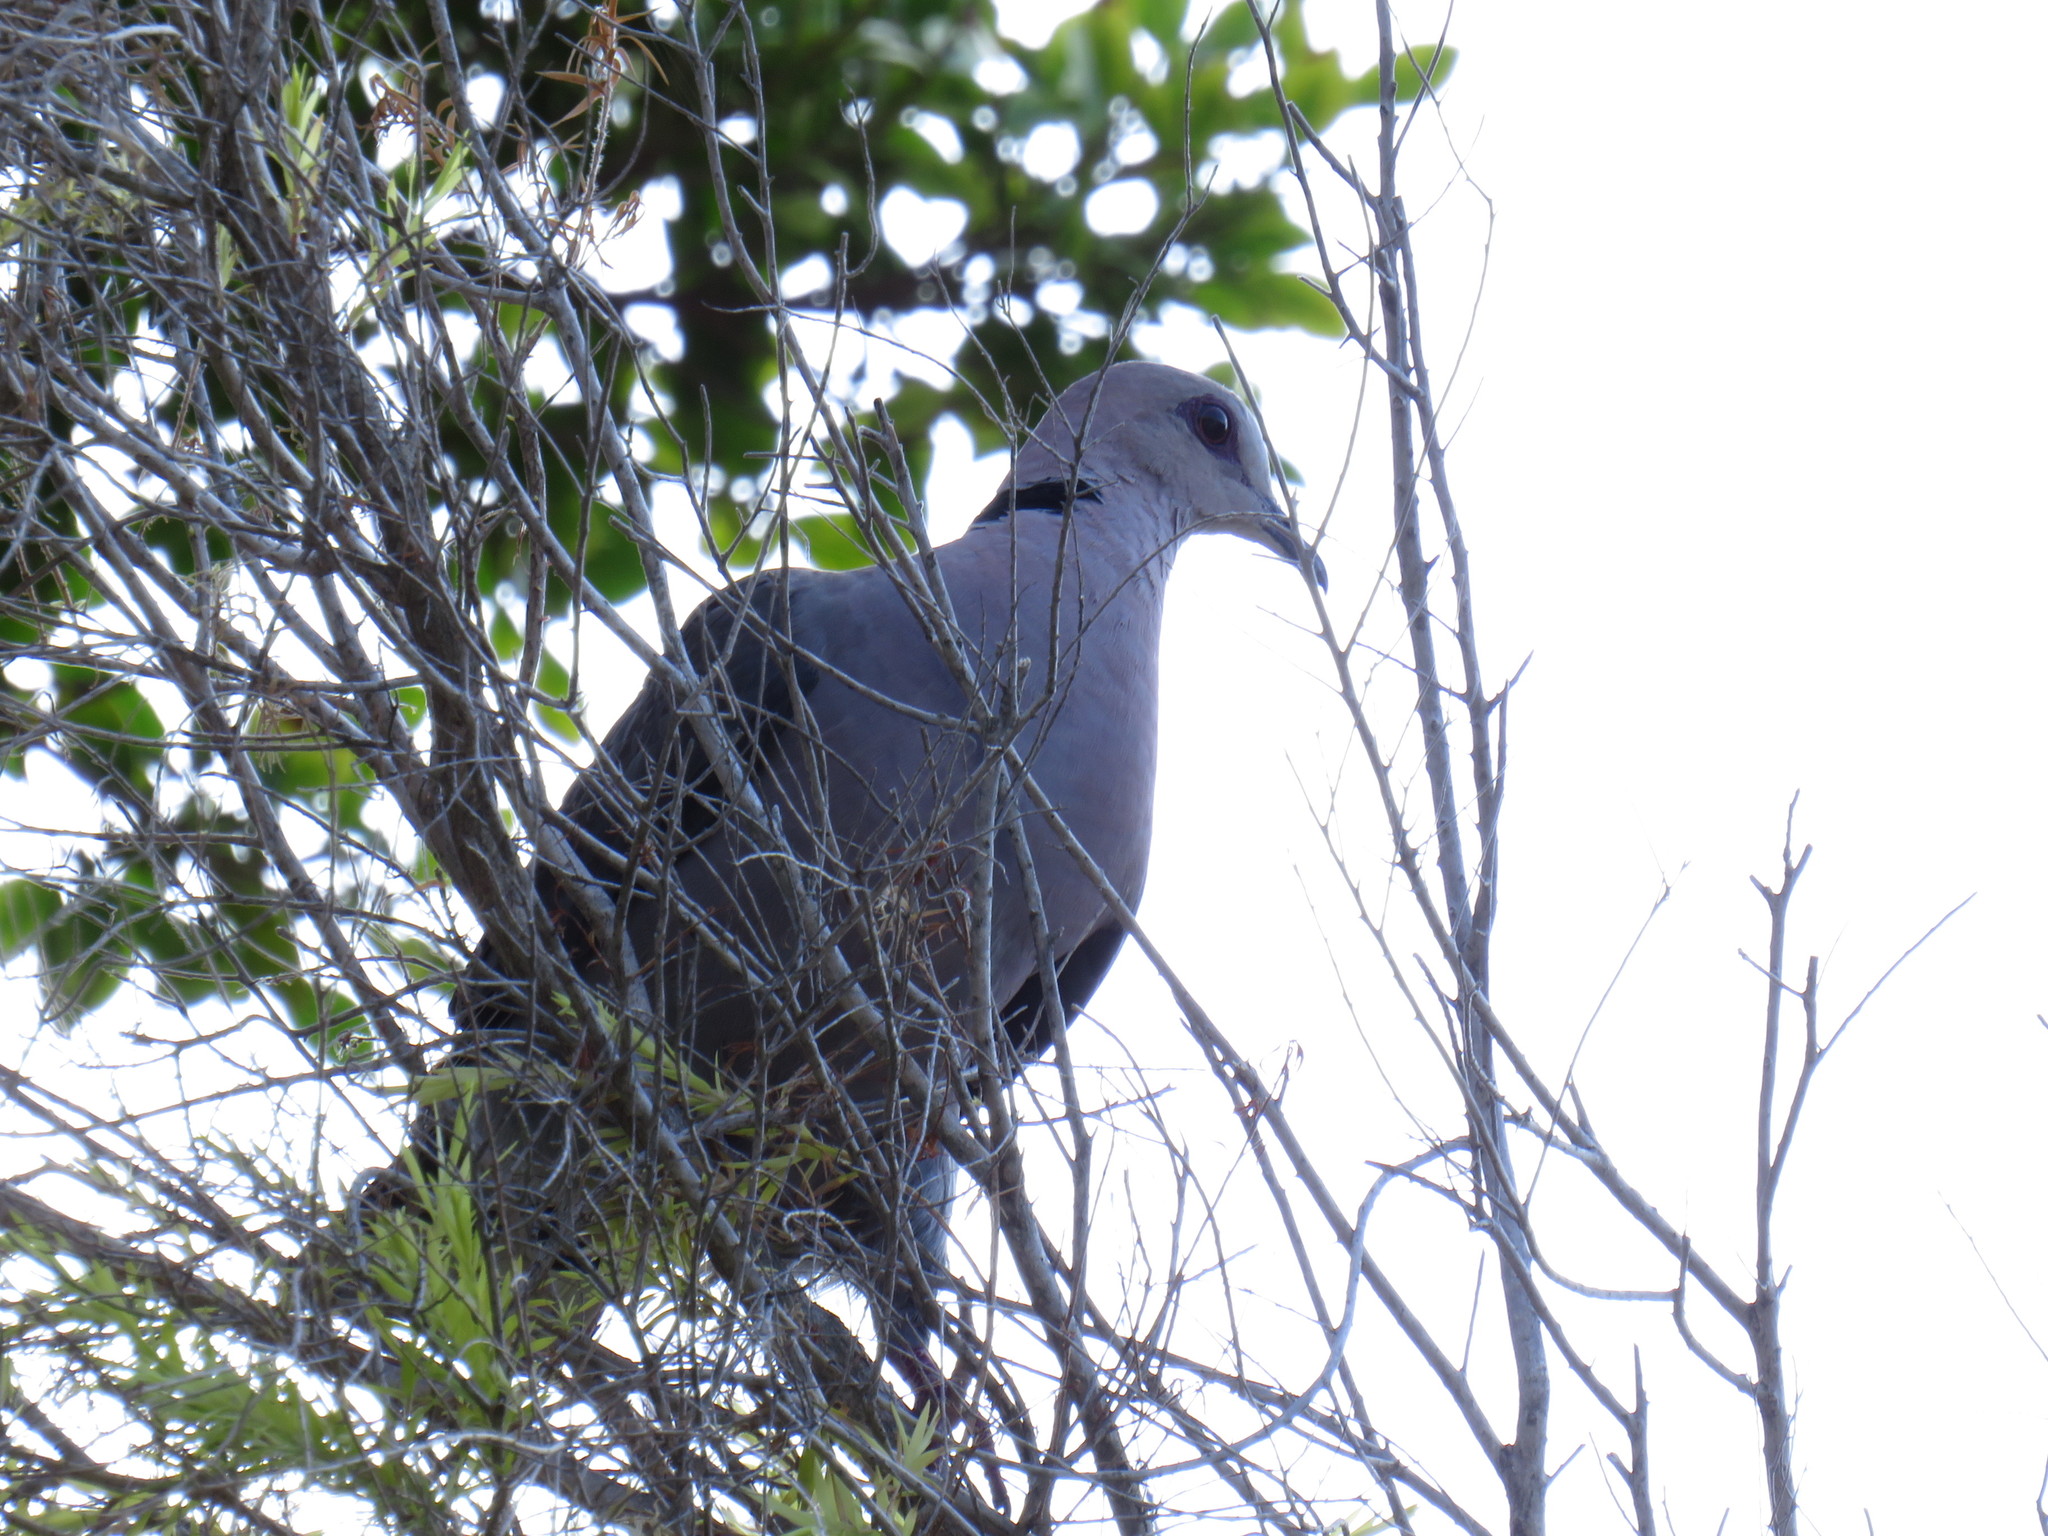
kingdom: Animalia
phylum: Chordata
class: Aves
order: Columbiformes
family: Columbidae
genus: Streptopelia
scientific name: Streptopelia semitorquata
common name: Red-eyed dove
